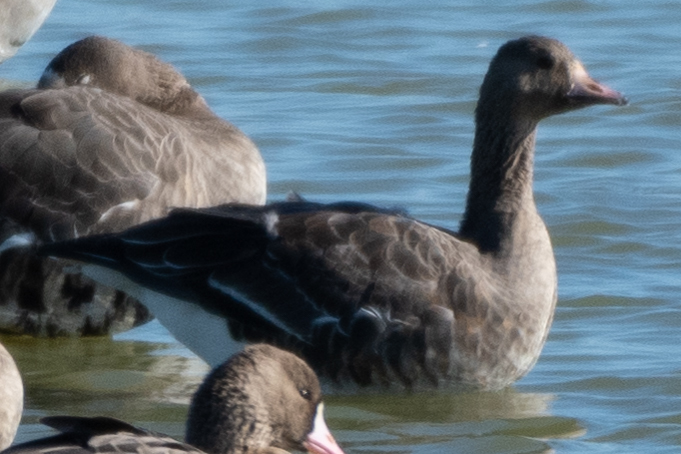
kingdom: Animalia
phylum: Chordata
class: Aves
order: Anseriformes
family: Anatidae
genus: Anser
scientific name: Anser albifrons
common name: Greater white-fronted goose
